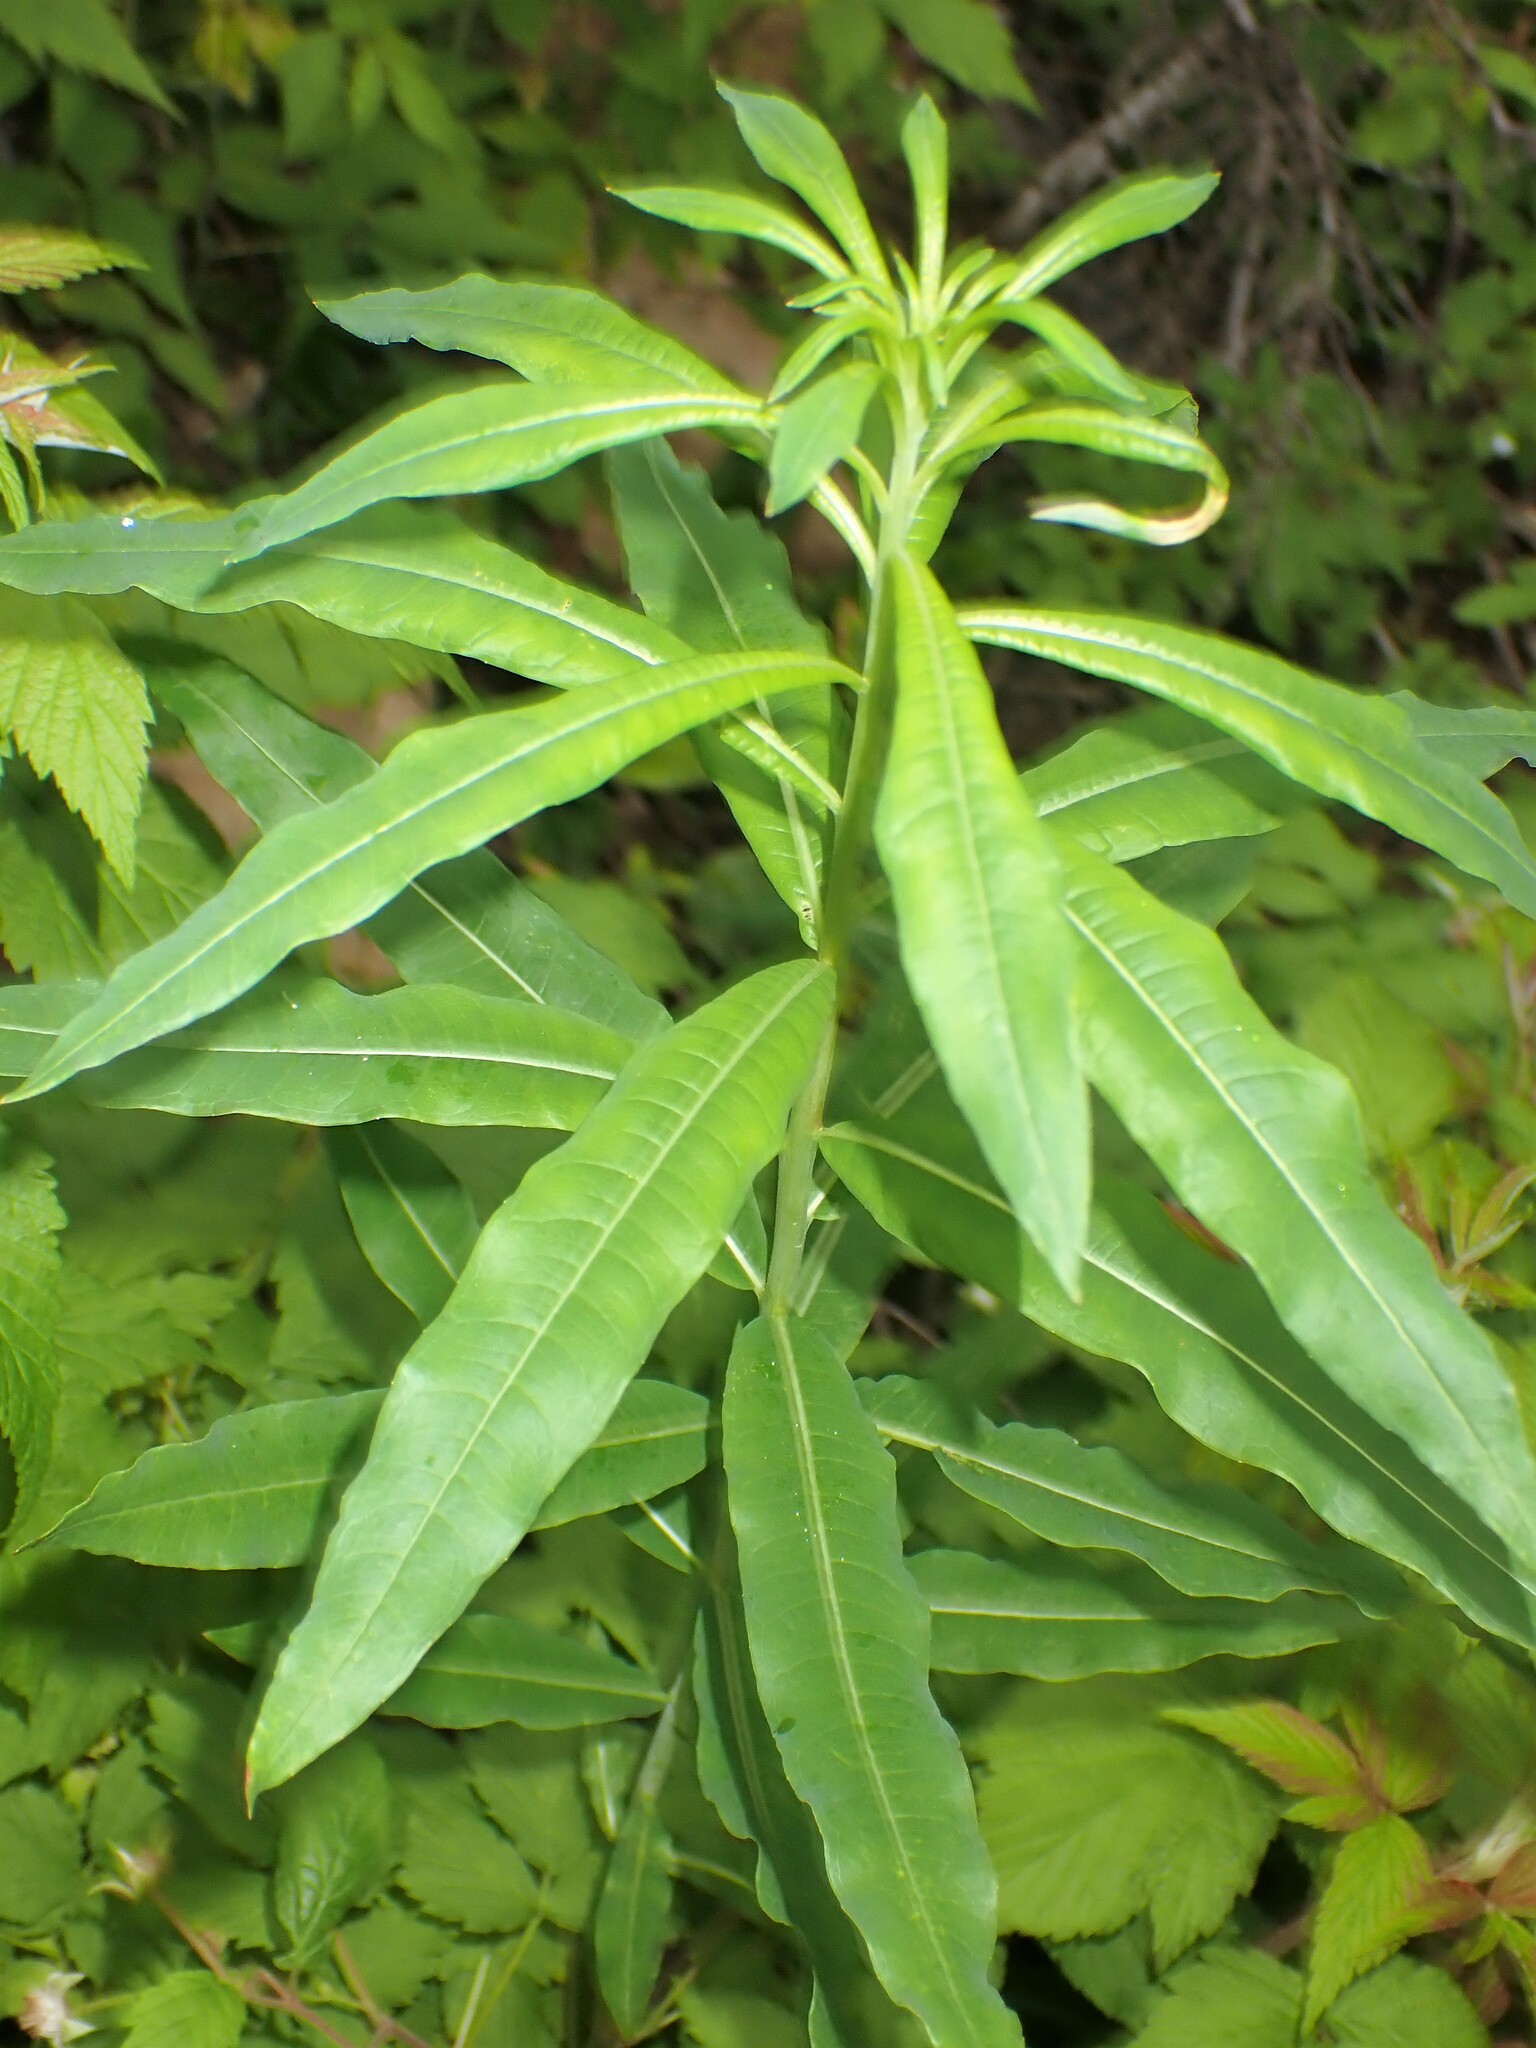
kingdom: Plantae
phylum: Tracheophyta
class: Magnoliopsida
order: Myrtales
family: Onagraceae
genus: Chamaenerion
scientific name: Chamaenerion angustifolium
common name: Fireweed
